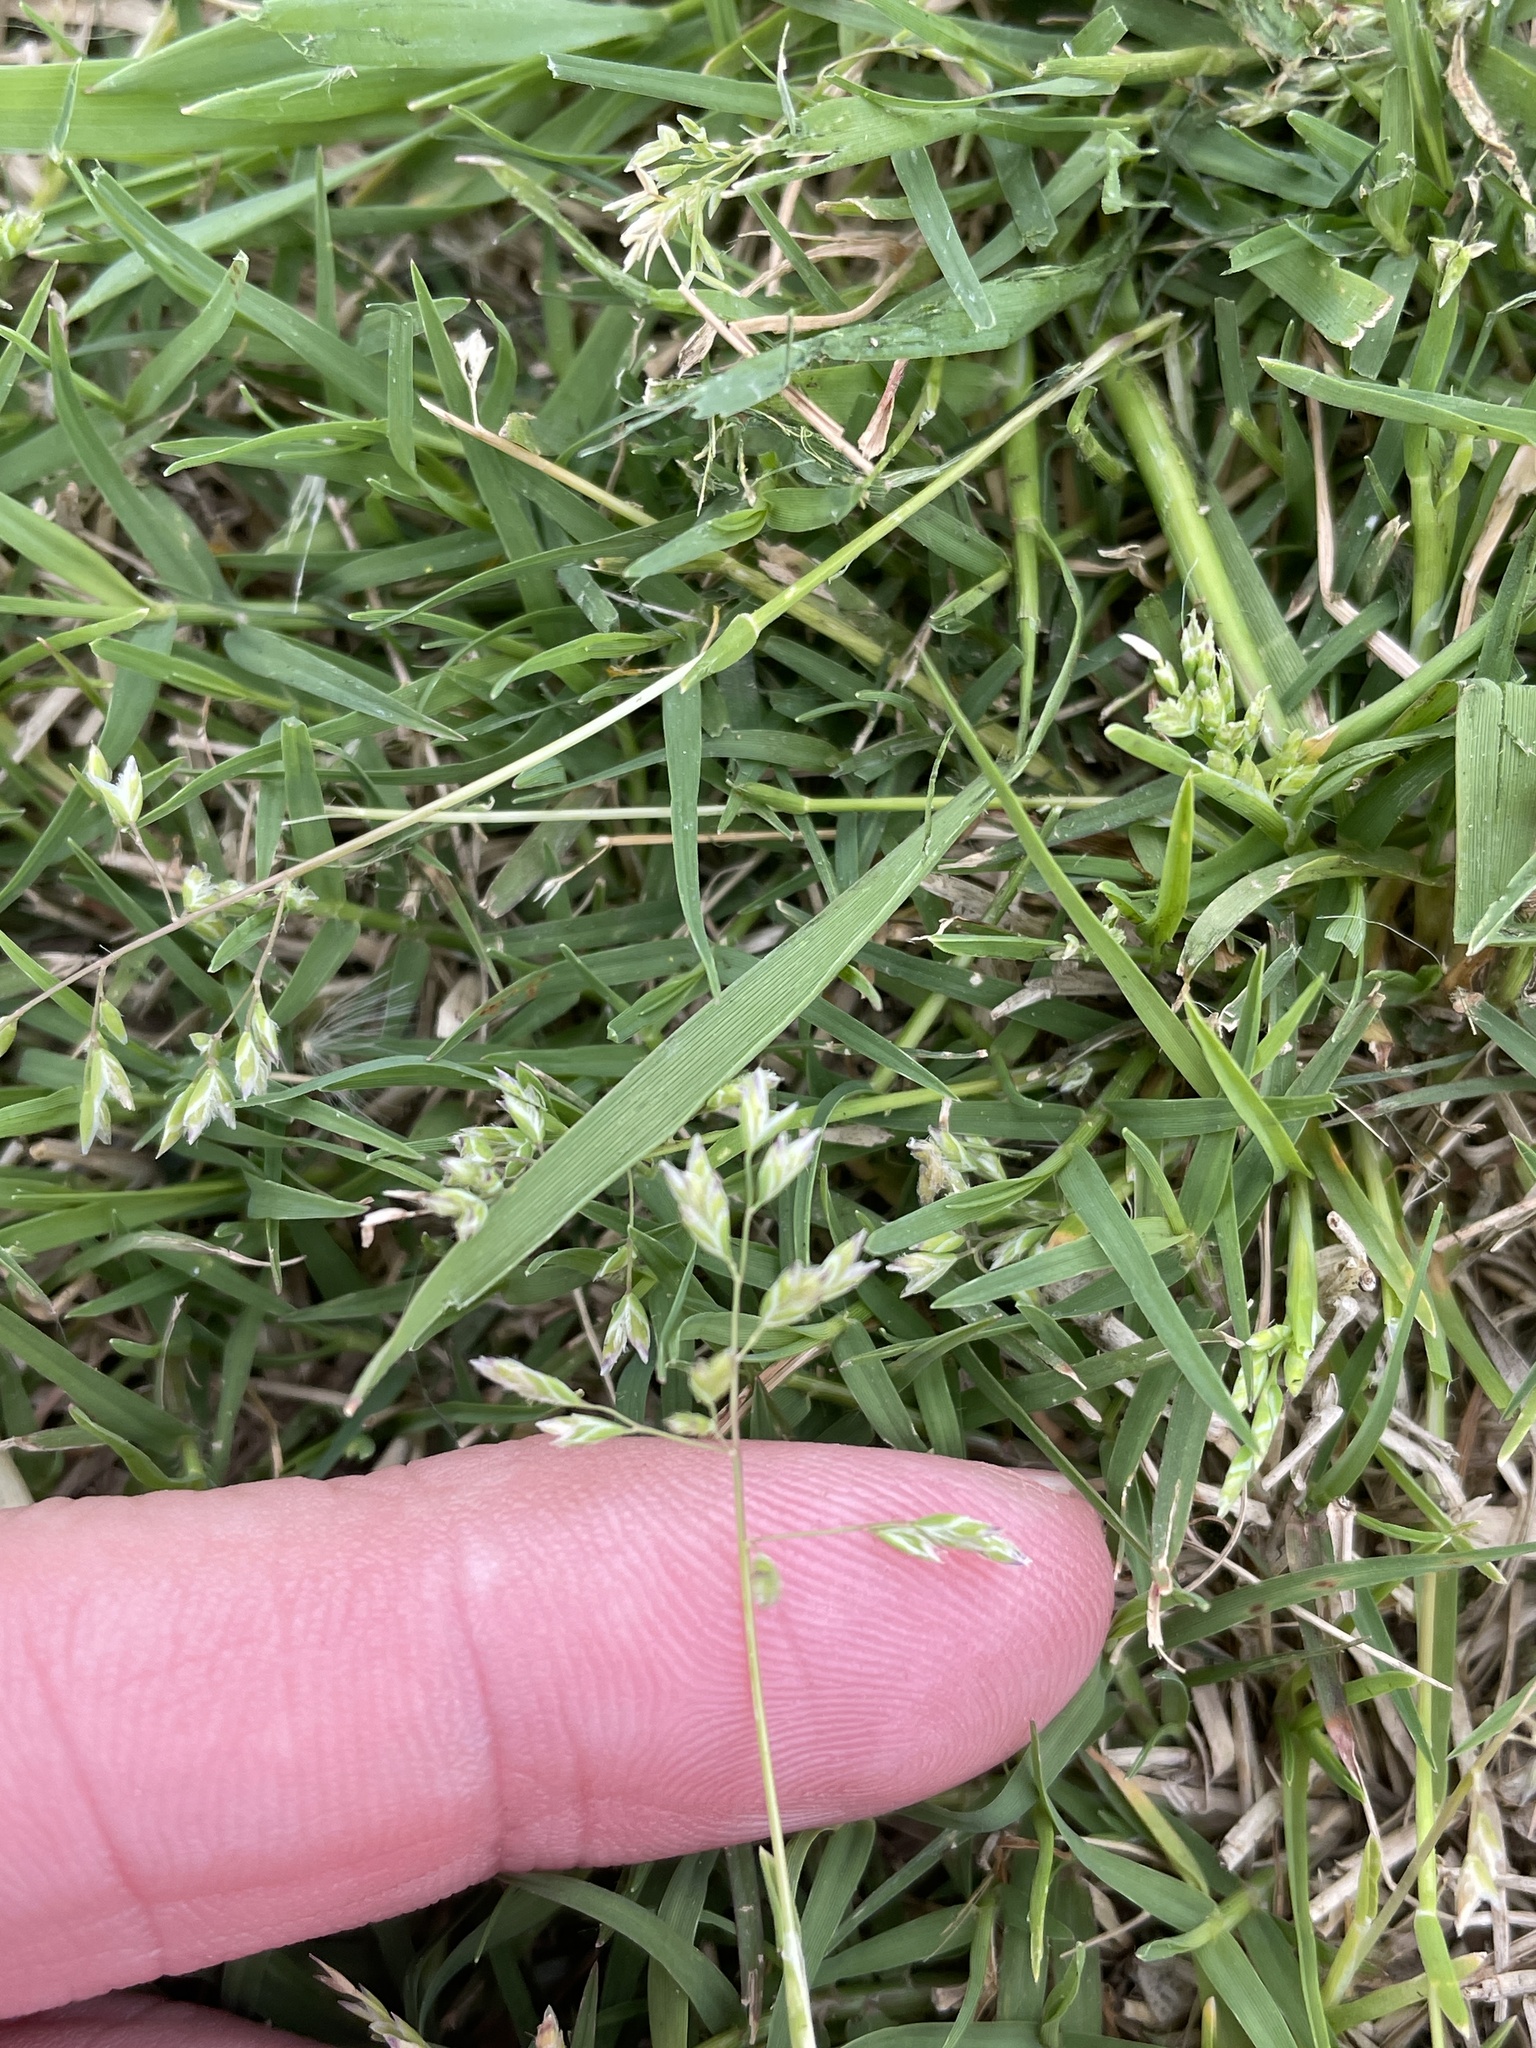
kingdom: Plantae
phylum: Tracheophyta
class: Liliopsida
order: Poales
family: Poaceae
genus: Poa
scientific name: Poa annua
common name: Annual bluegrass
